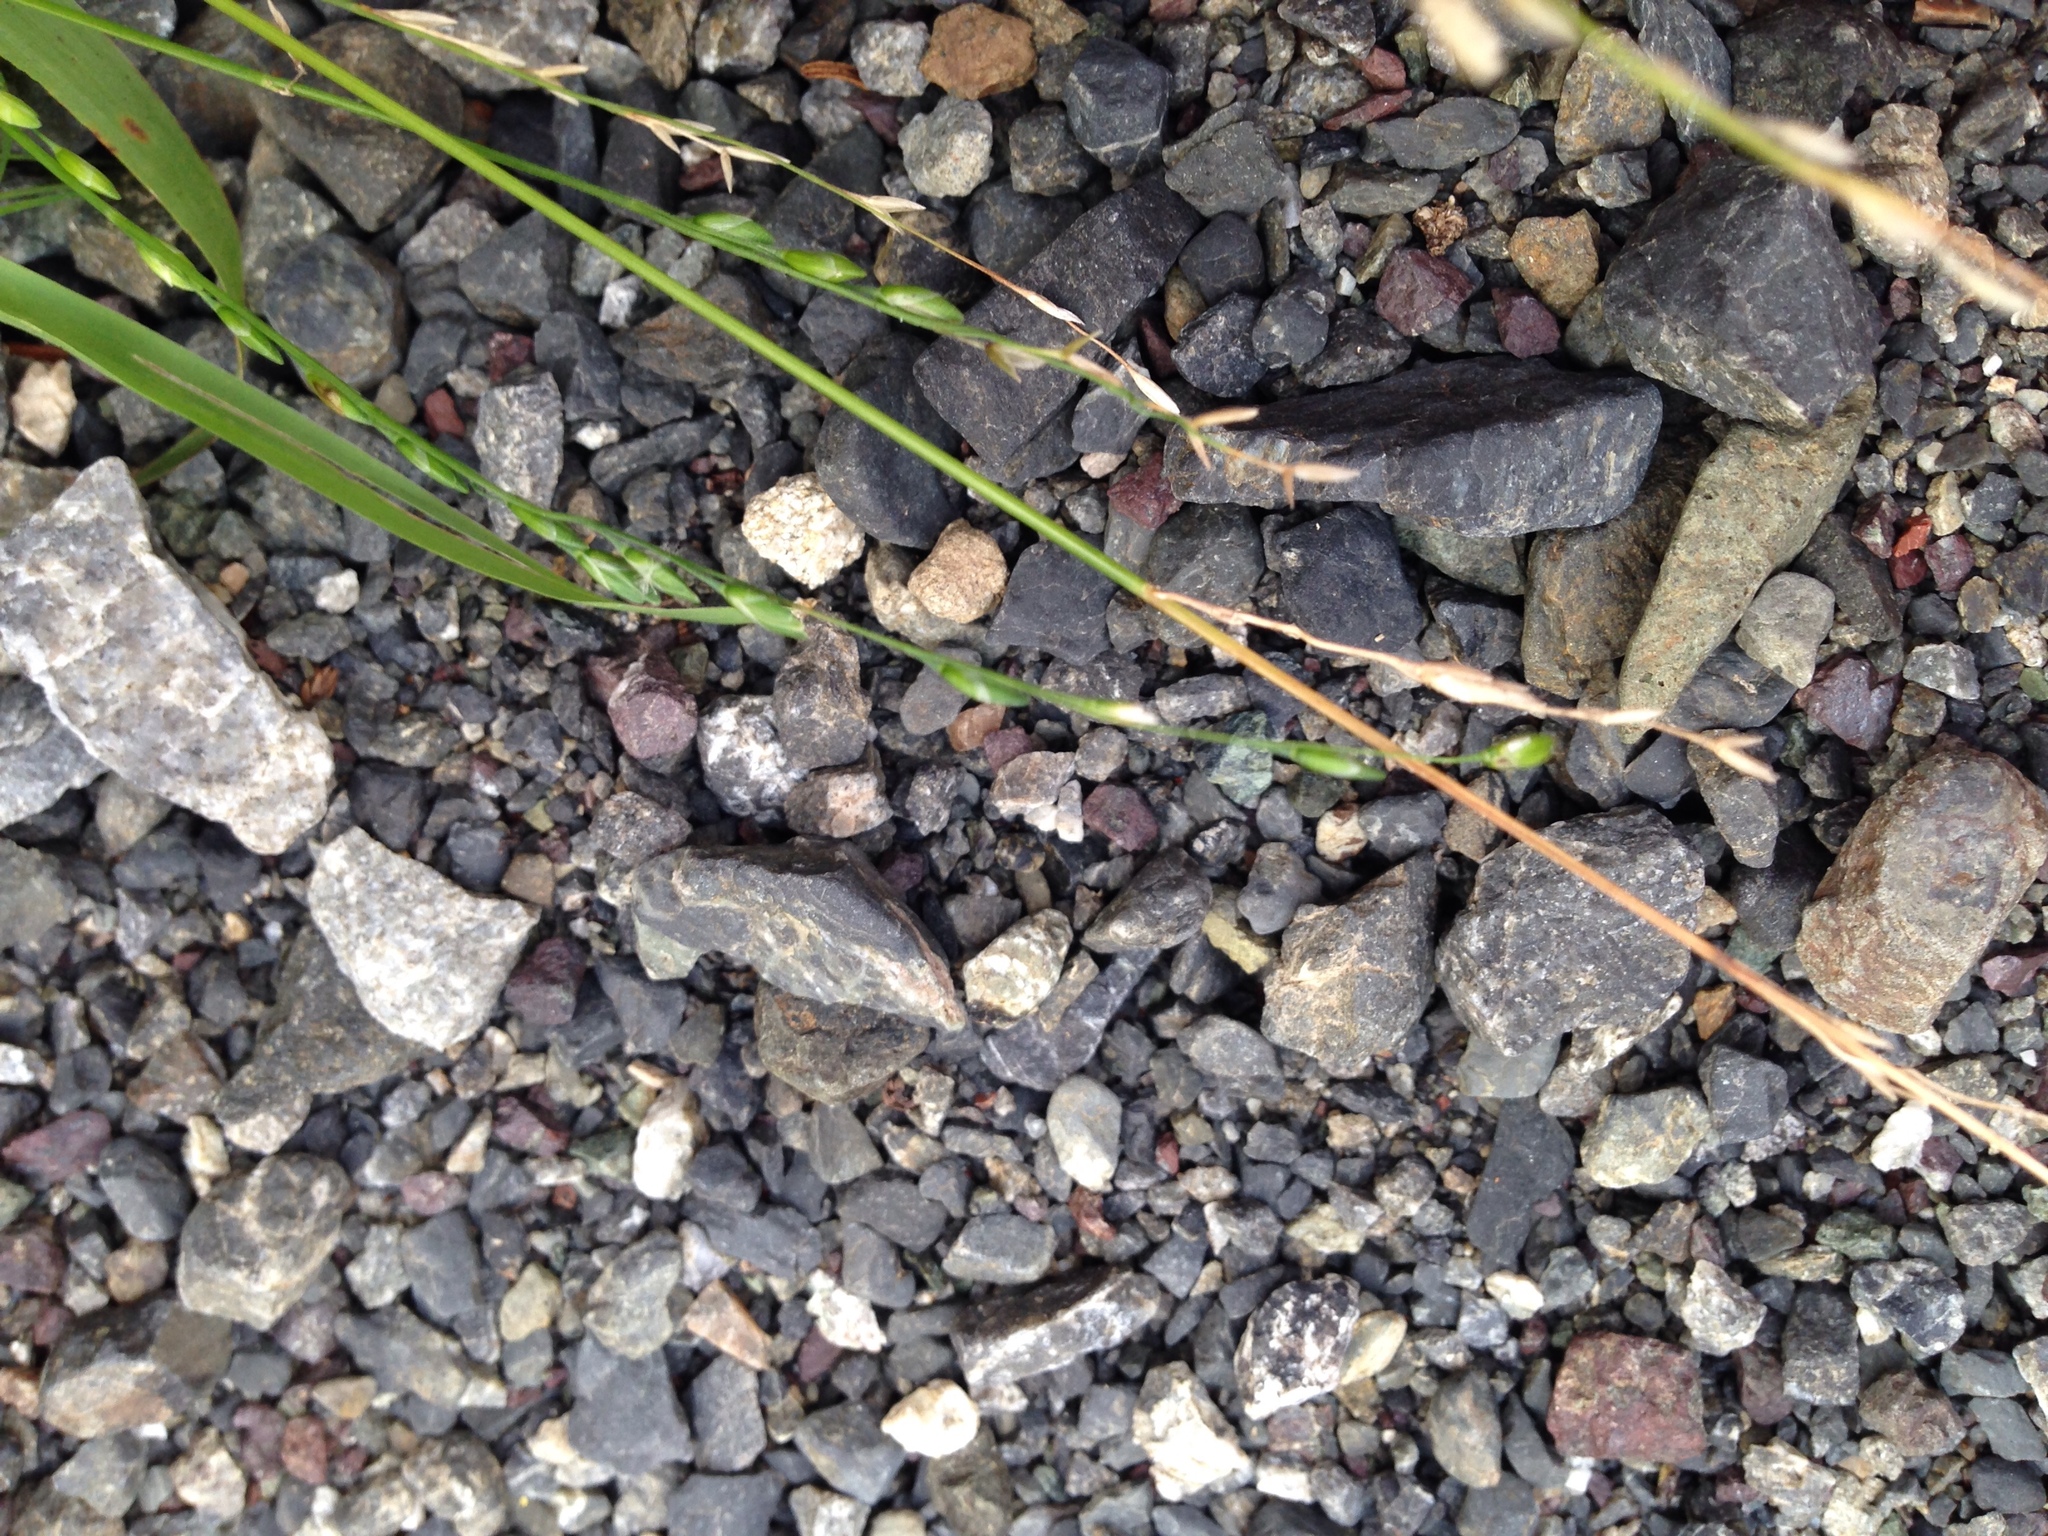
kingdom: Plantae
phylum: Tracheophyta
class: Liliopsida
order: Poales
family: Poaceae
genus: Ehrharta
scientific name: Ehrharta erecta
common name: Panic veldtgrass
